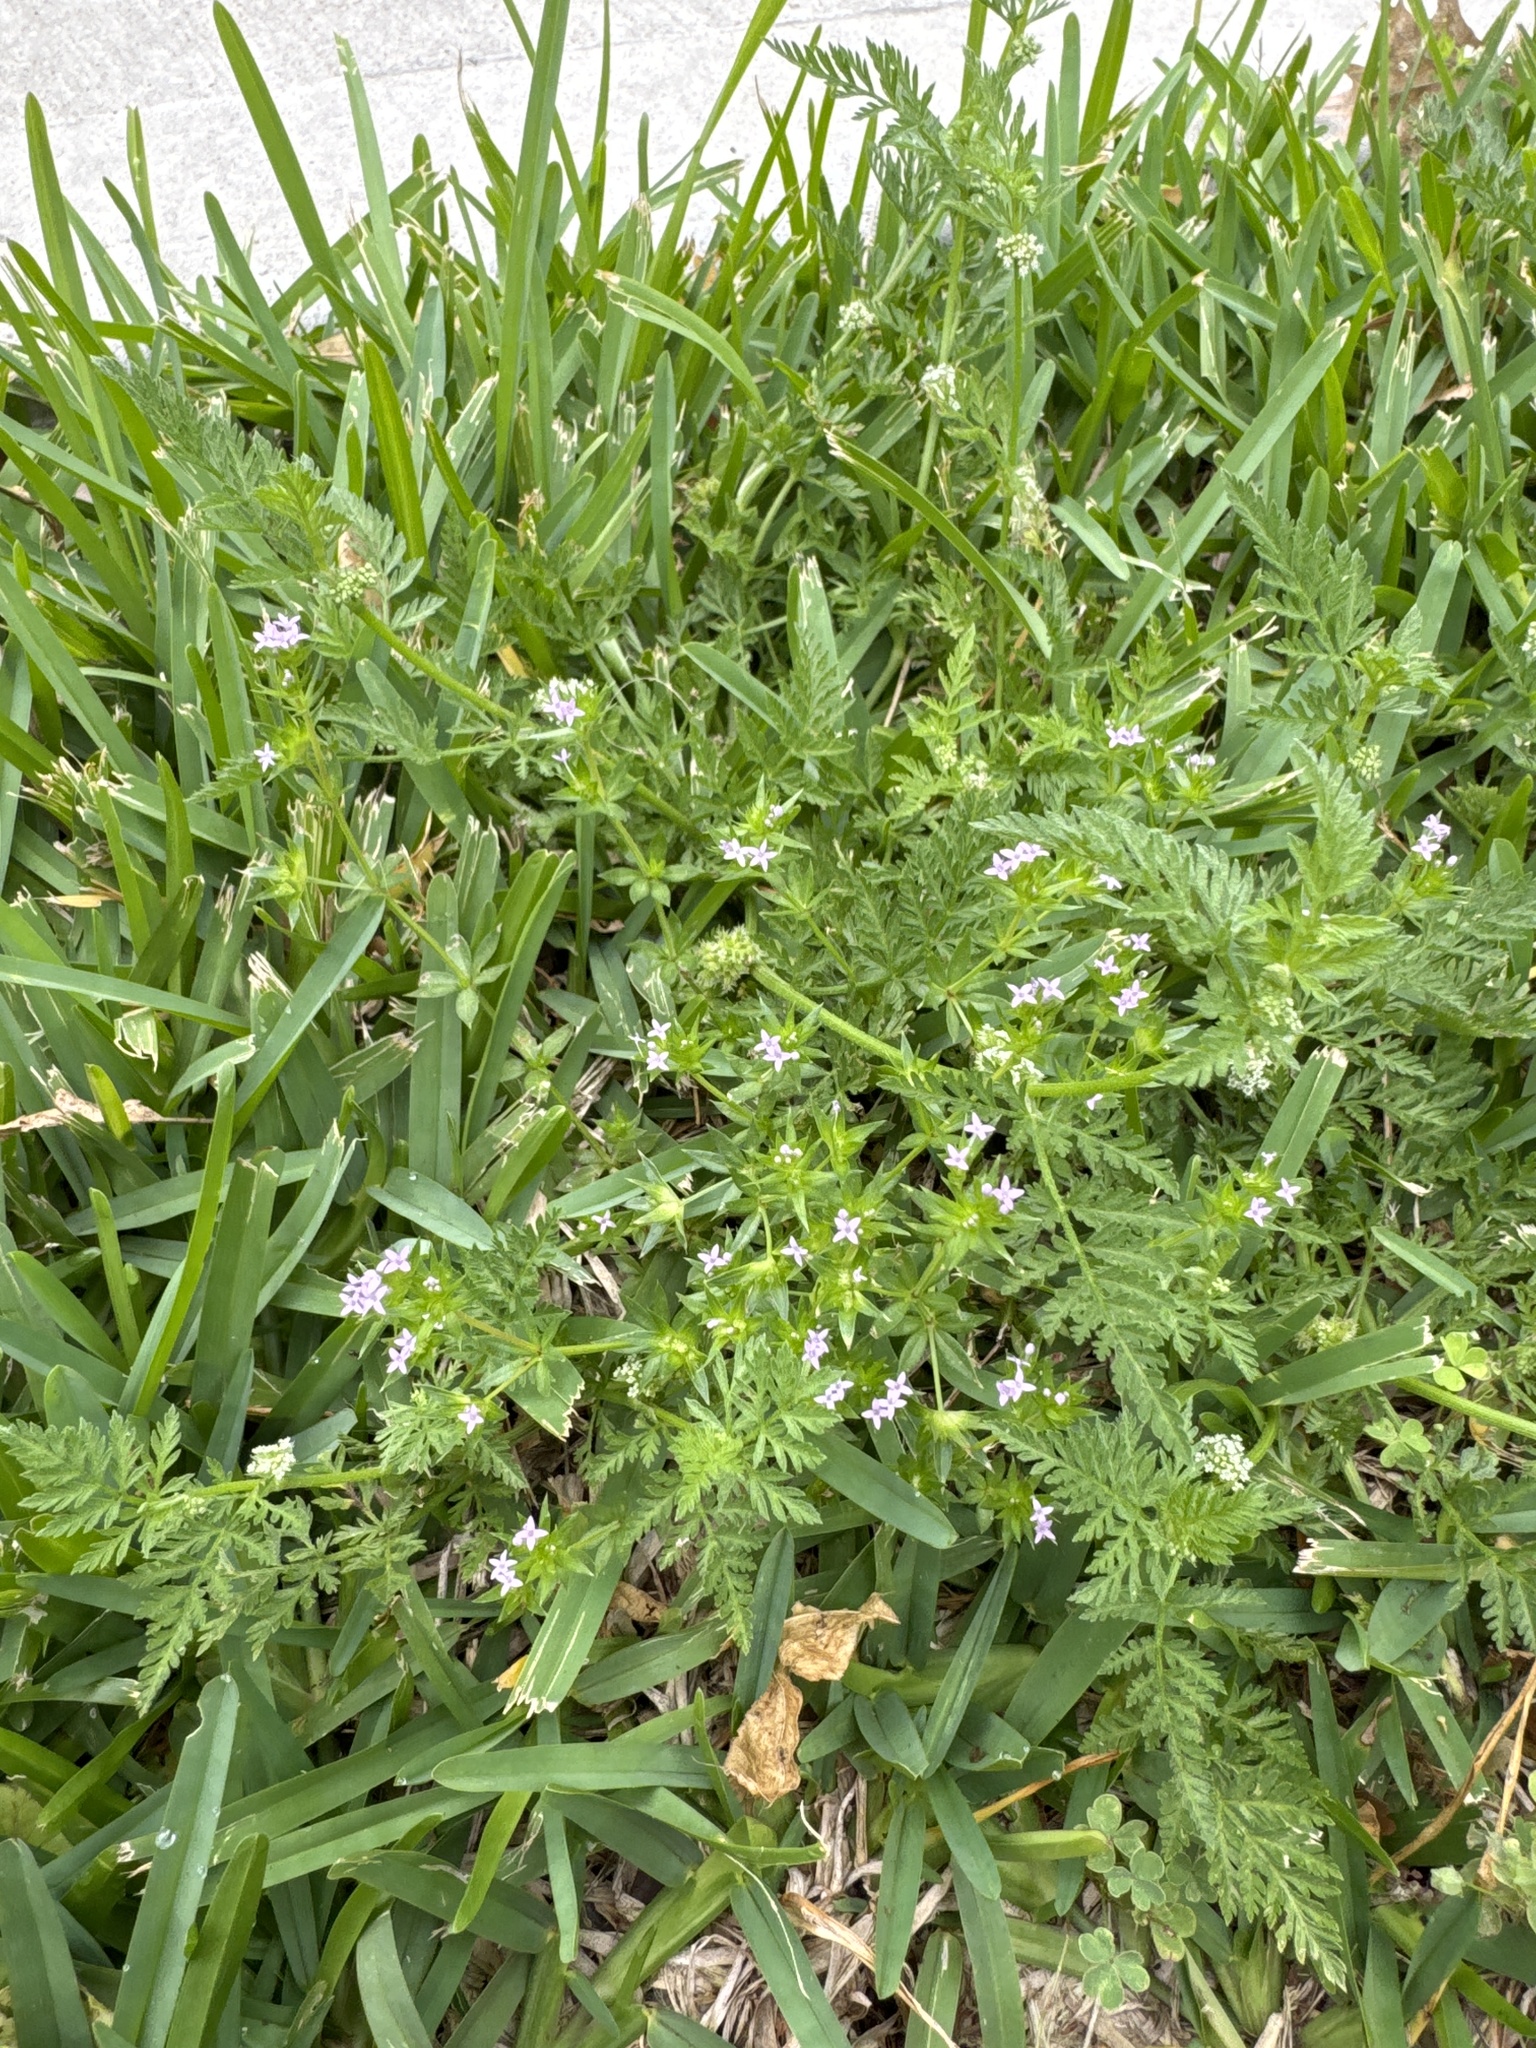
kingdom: Plantae
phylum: Tracheophyta
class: Magnoliopsida
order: Gentianales
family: Rubiaceae
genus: Sherardia
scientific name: Sherardia arvensis
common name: Field madder
